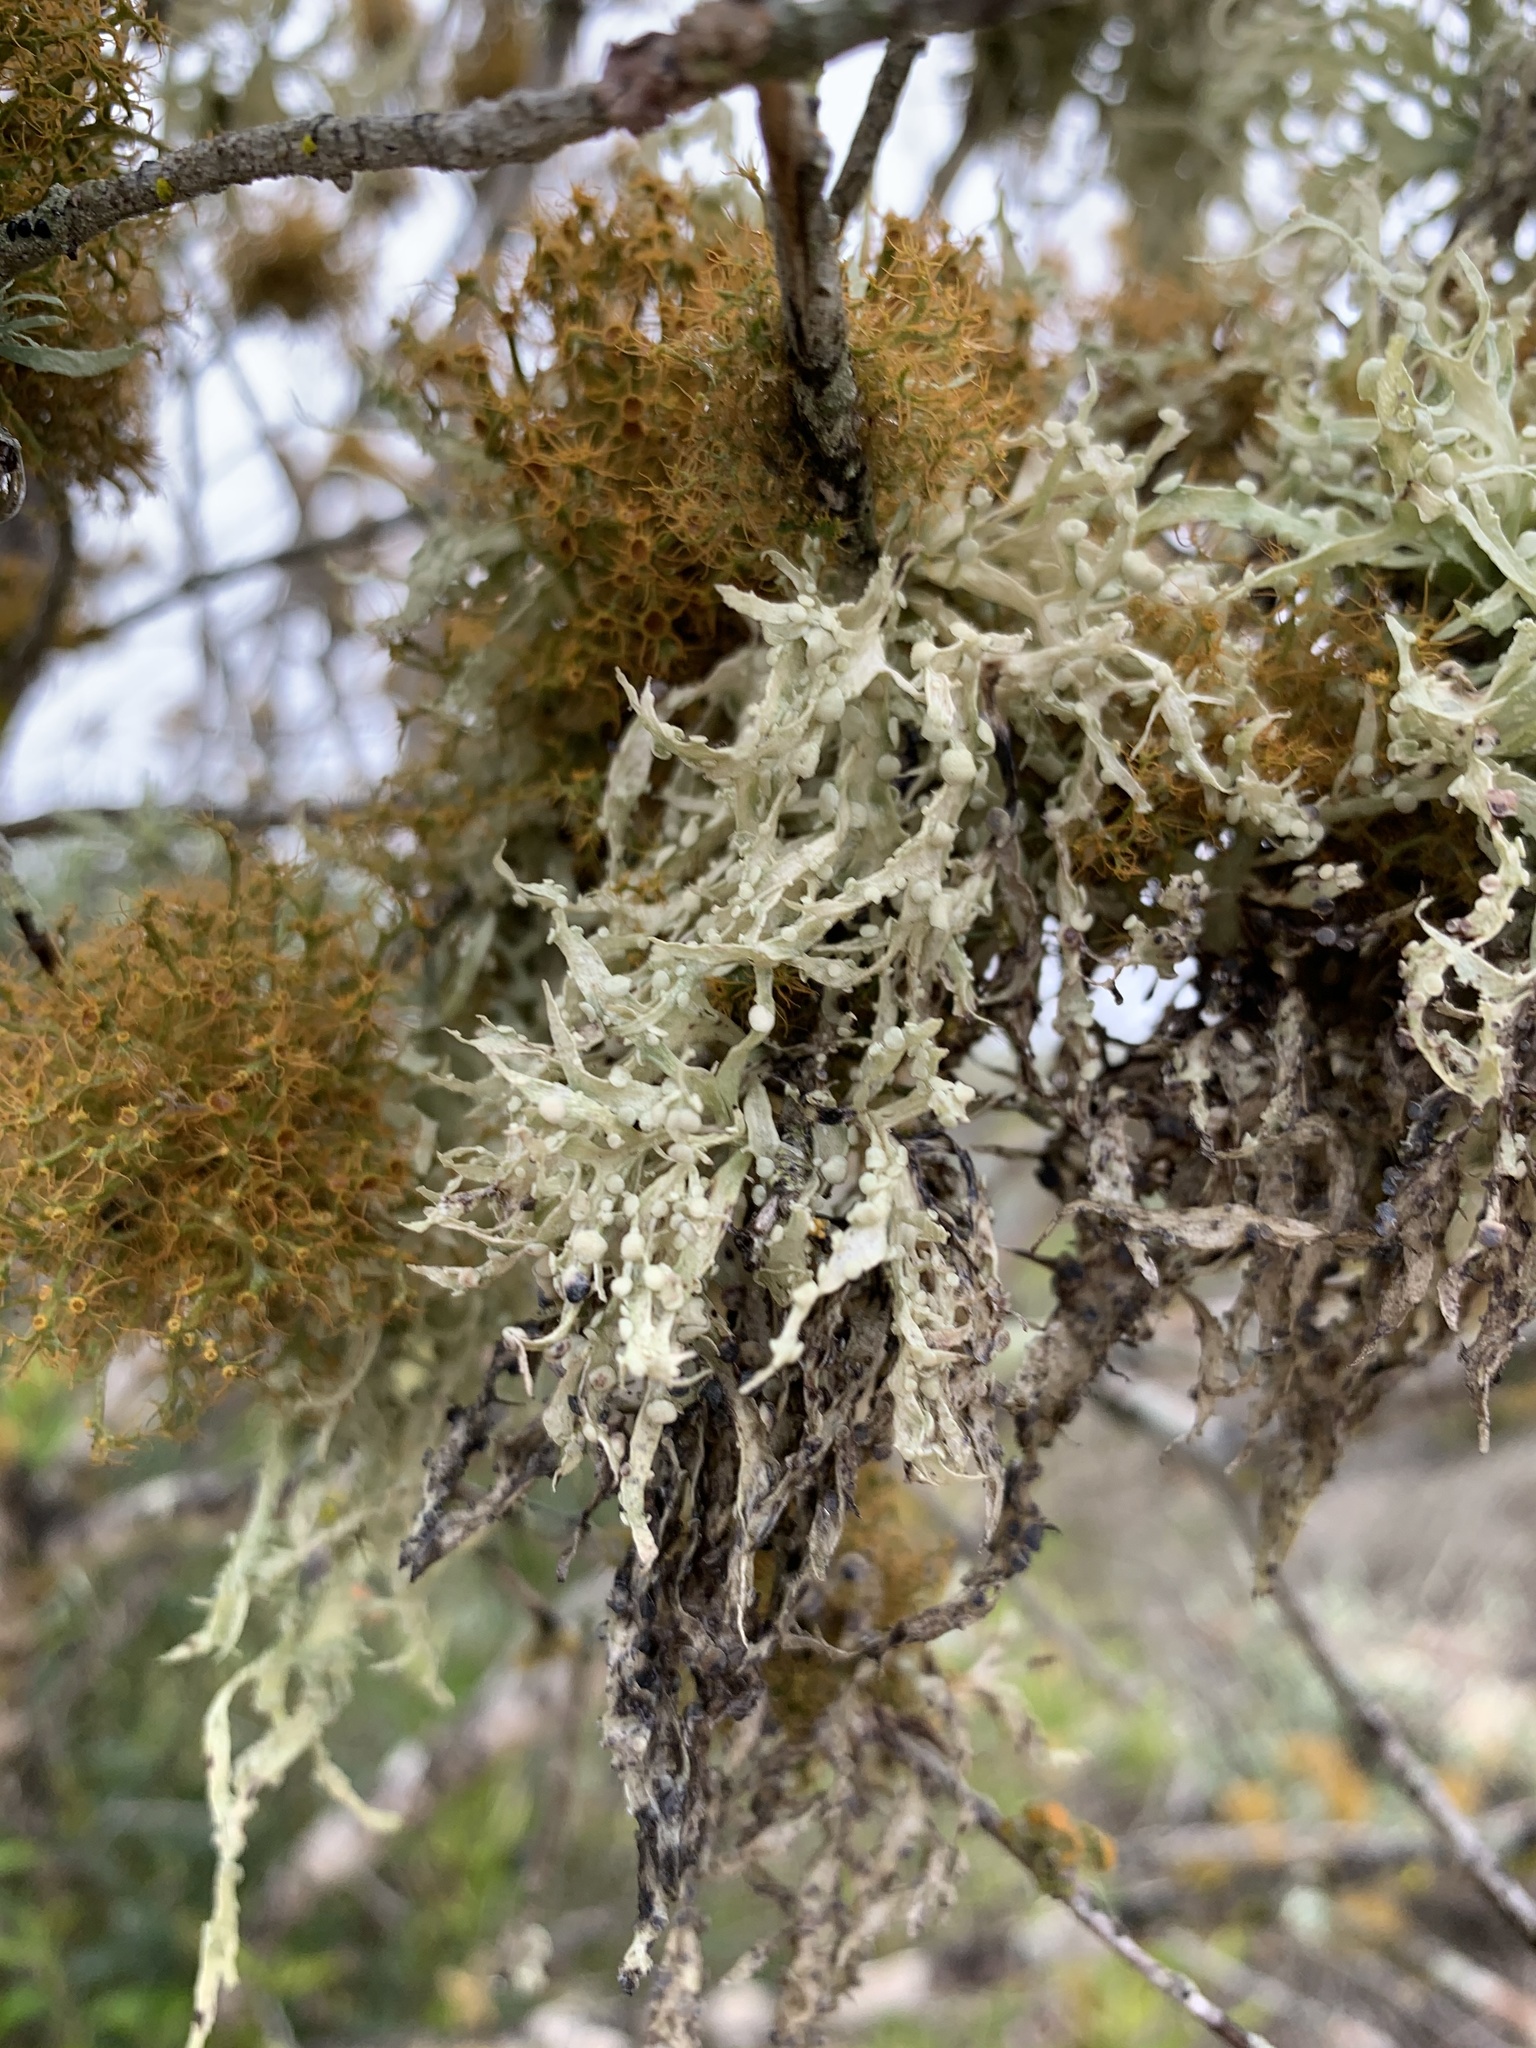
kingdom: Fungi
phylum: Ascomycota
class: Lecanoromycetes
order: Lecanorales
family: Ramalinaceae
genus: Ramalina
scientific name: Ramalina celastri
